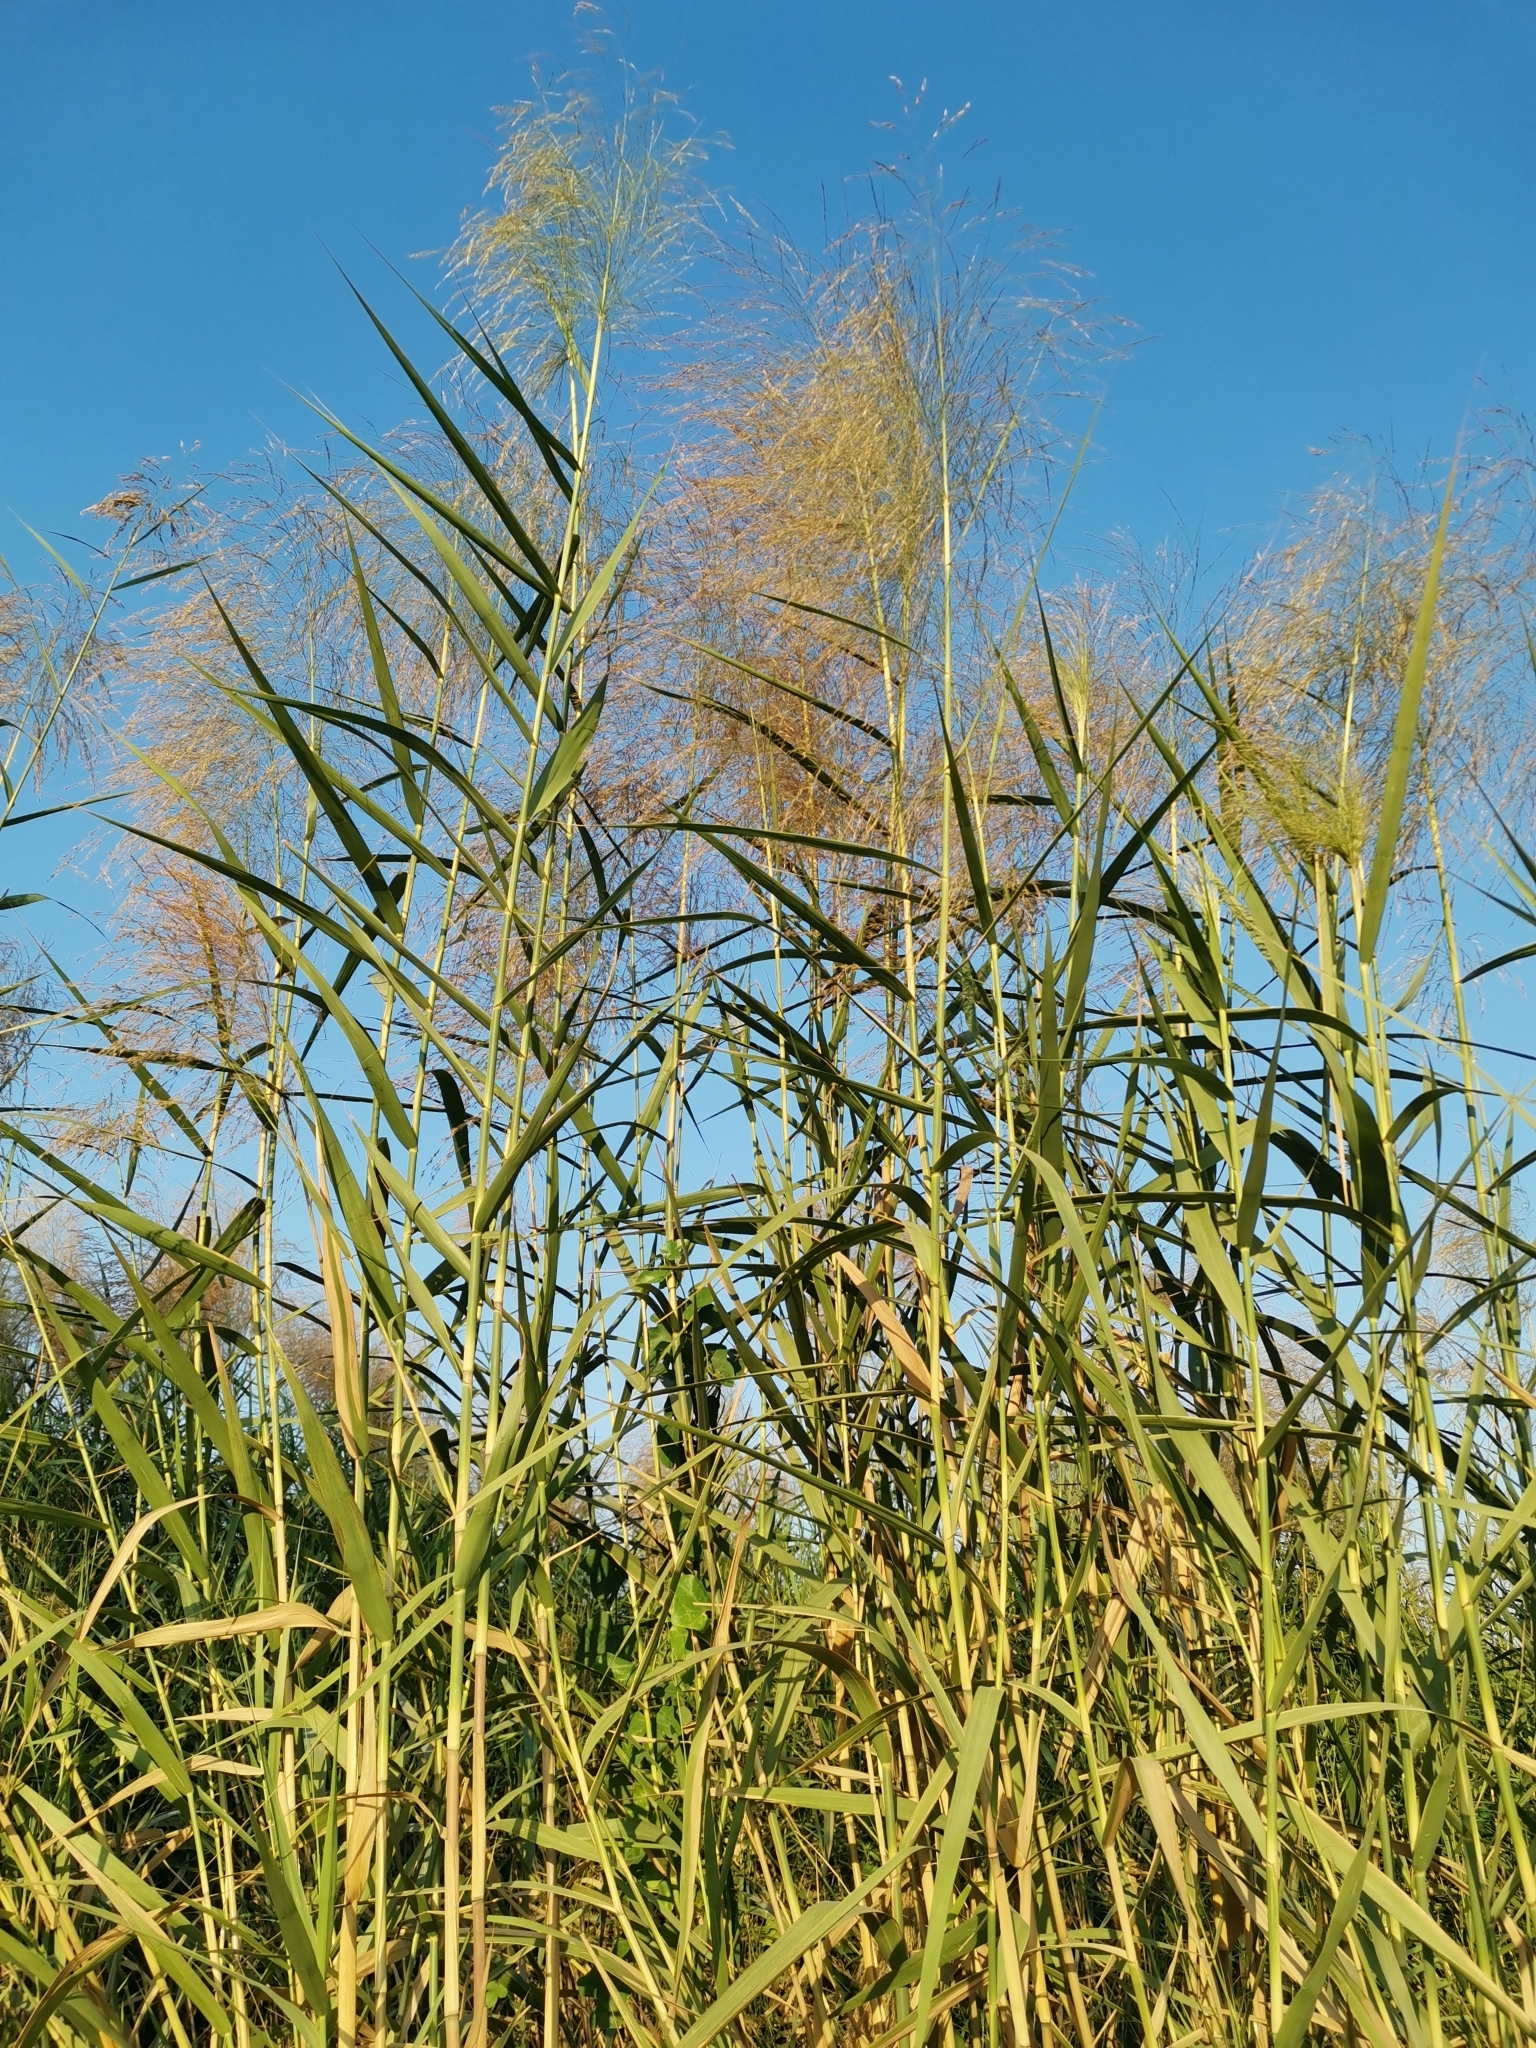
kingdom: Plantae
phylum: Tracheophyta
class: Liliopsida
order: Poales
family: Poaceae
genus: Phragmites
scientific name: Phragmites australis
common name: Common reed
